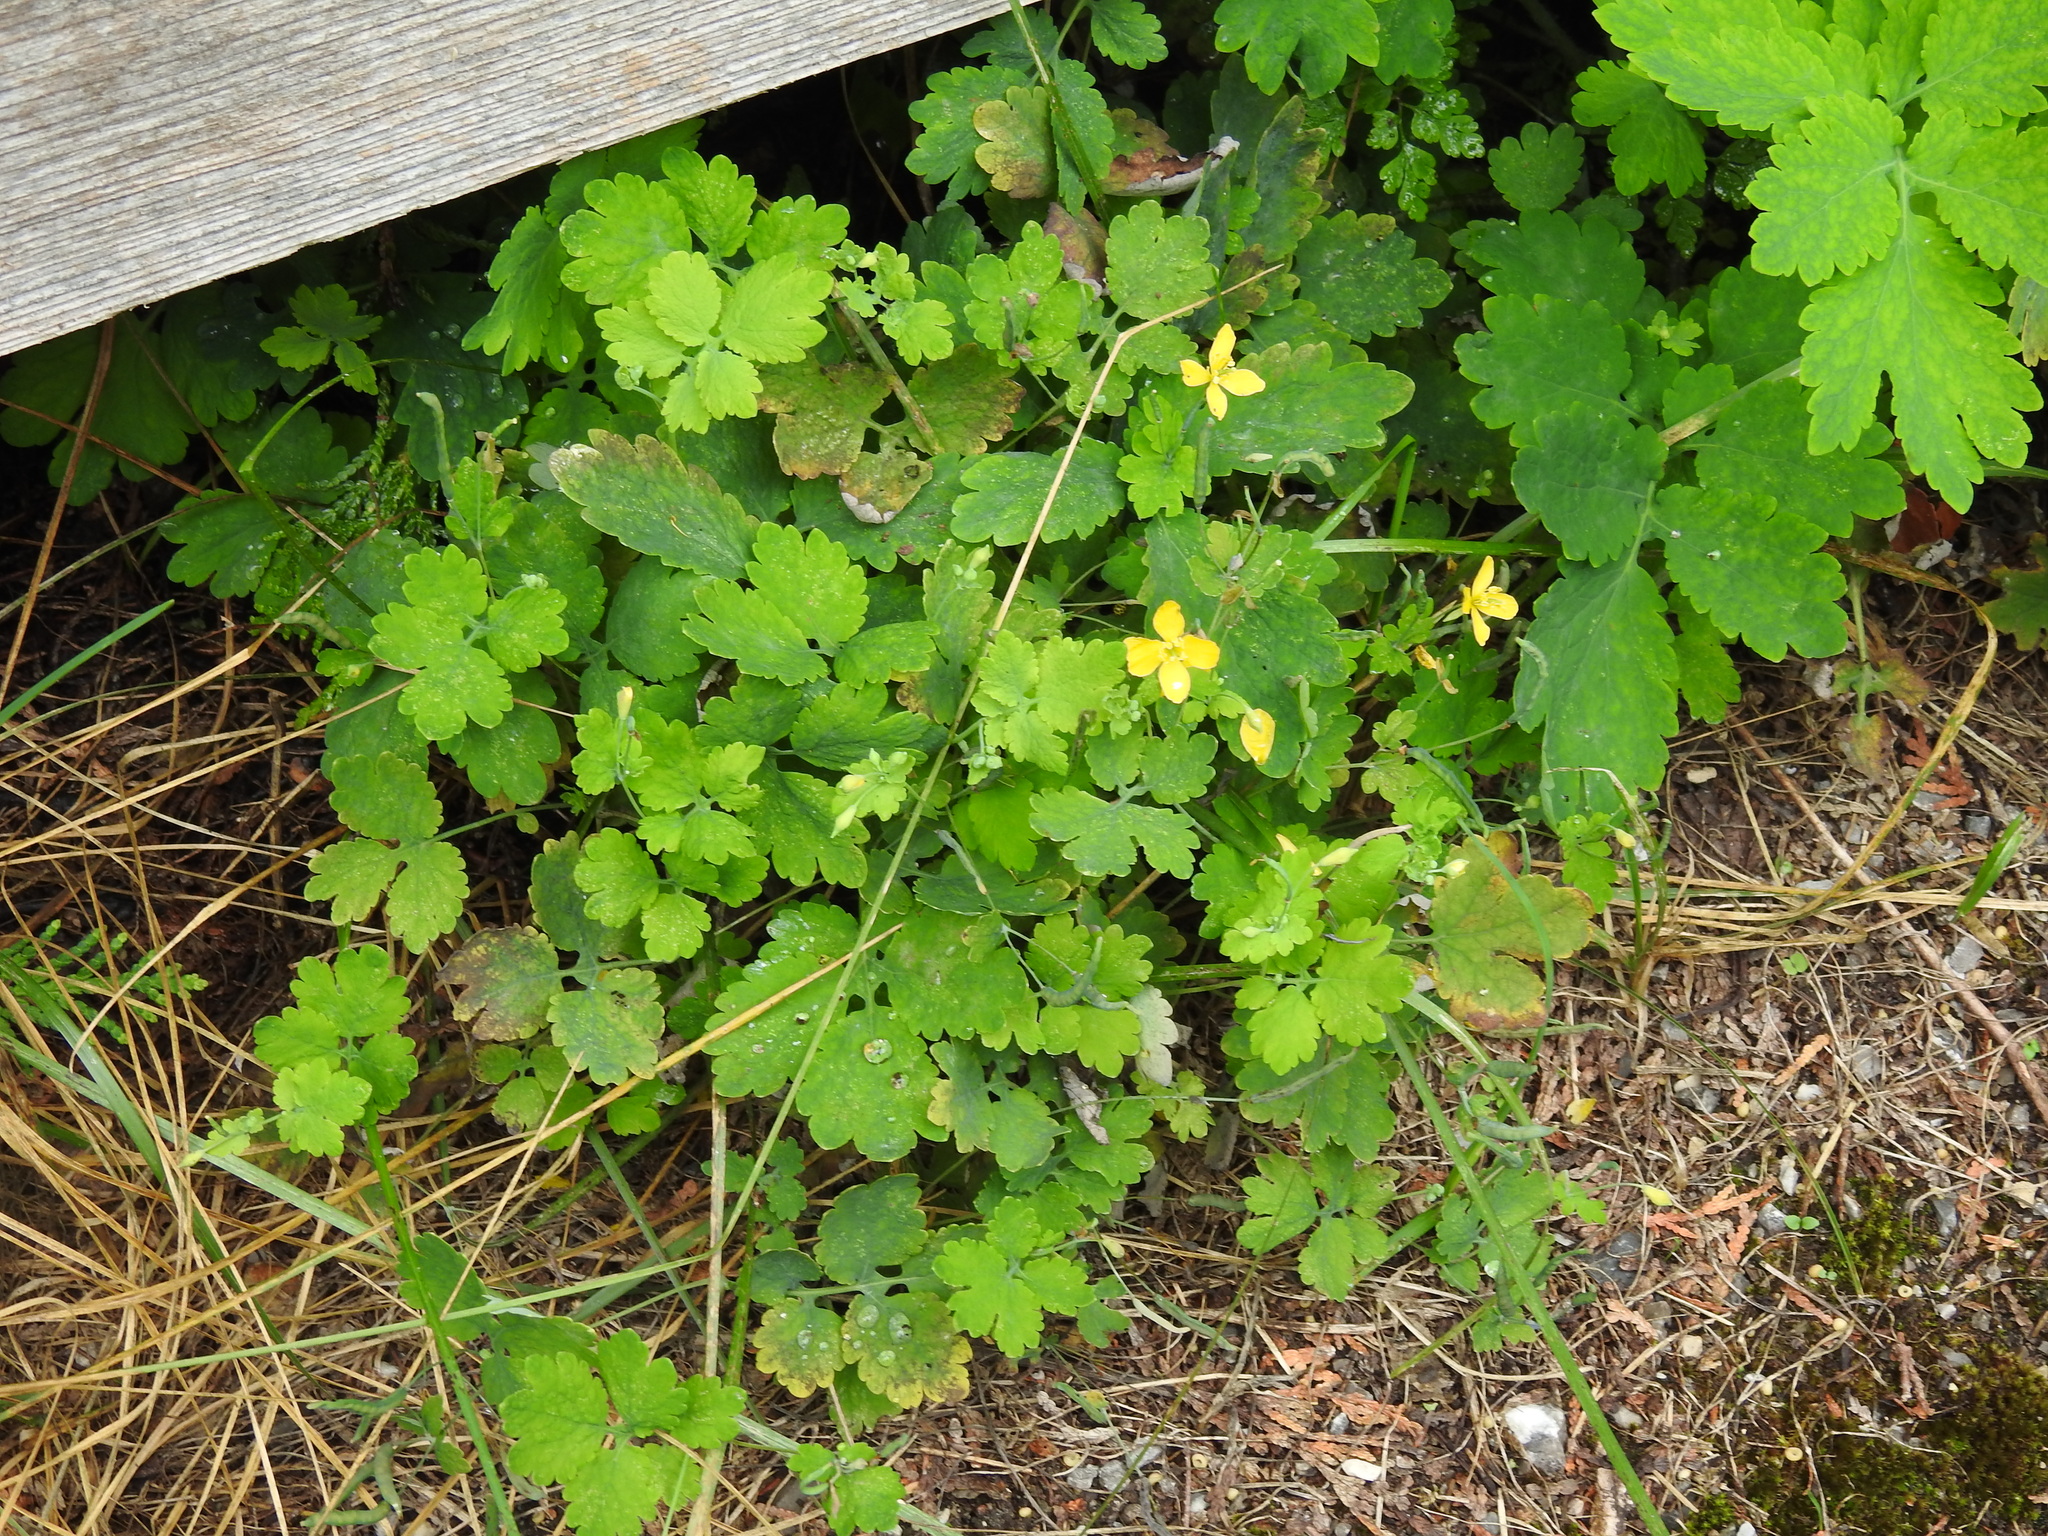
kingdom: Plantae
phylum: Tracheophyta
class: Magnoliopsida
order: Ranunculales
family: Papaveraceae
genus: Chelidonium
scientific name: Chelidonium majus
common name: Greater celandine
